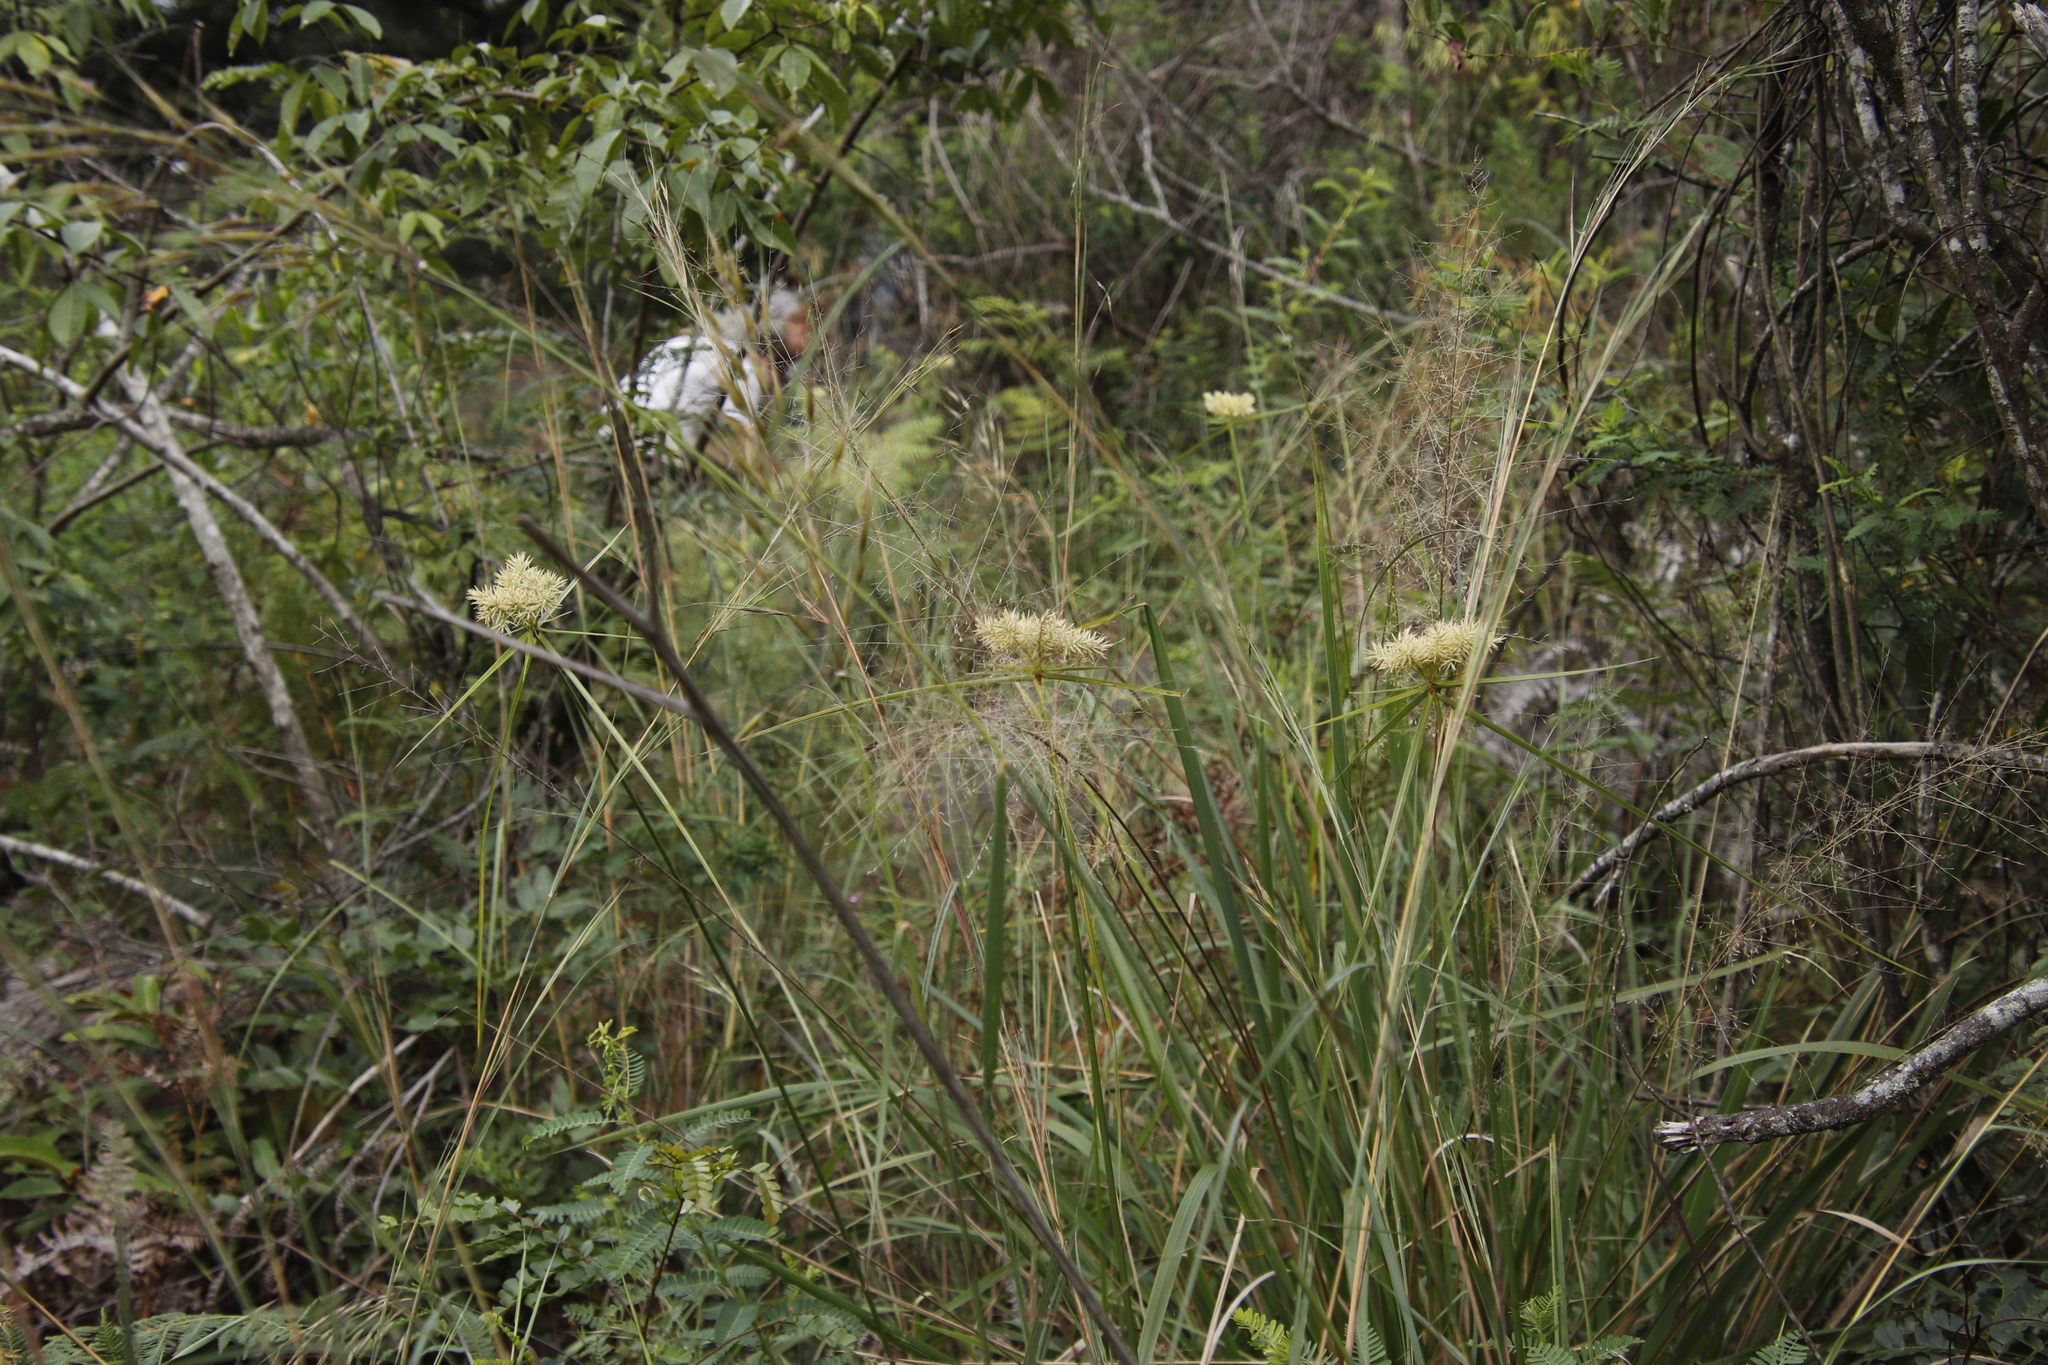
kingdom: Plantae
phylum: Tracheophyta
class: Liliopsida
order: Poales
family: Cyperaceae
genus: Cyperus
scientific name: Cyperus hemisphaericus
